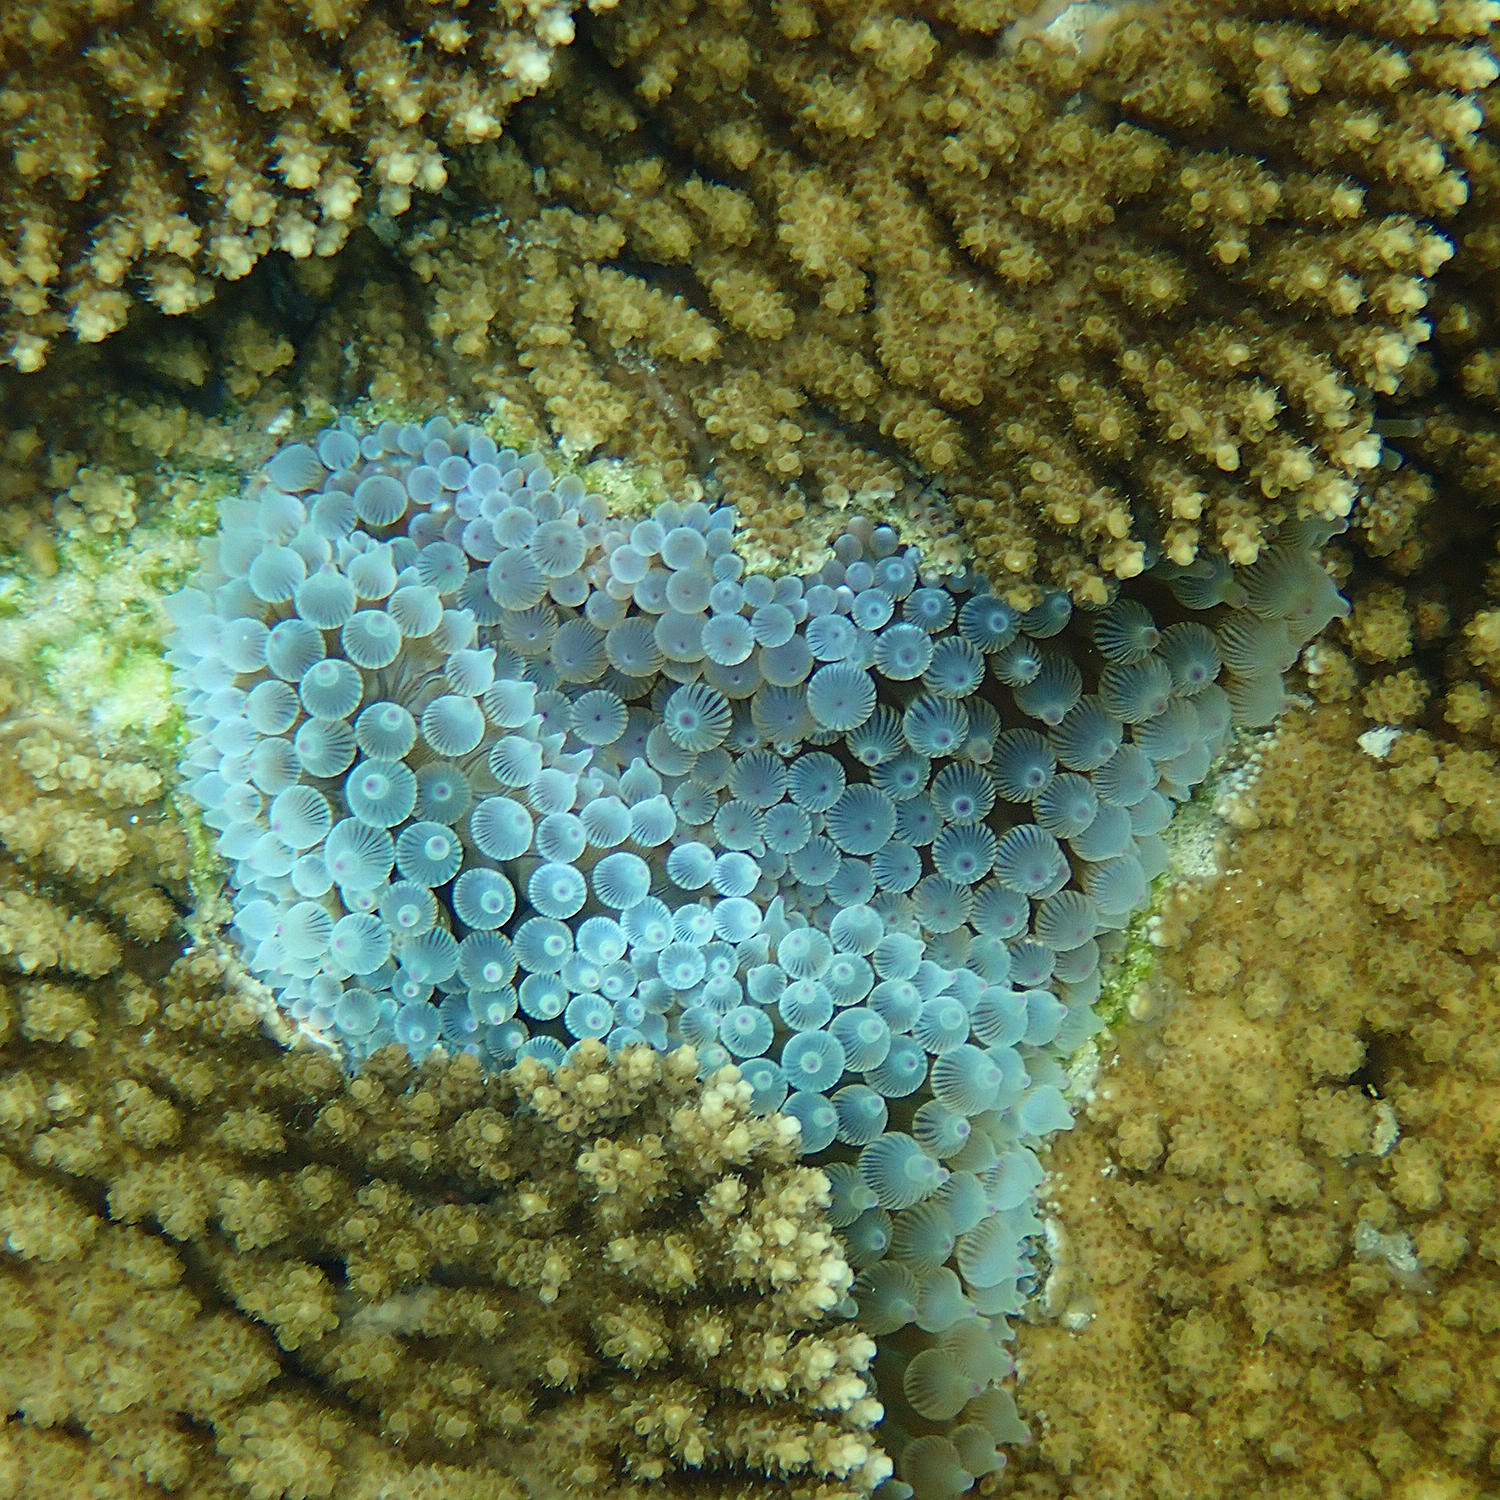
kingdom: Animalia
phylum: Cnidaria
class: Anthozoa
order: Actiniaria
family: Actiniidae
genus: Entacmaea
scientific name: Entacmaea quadricolor
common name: Bulb tentacle sea anemone
